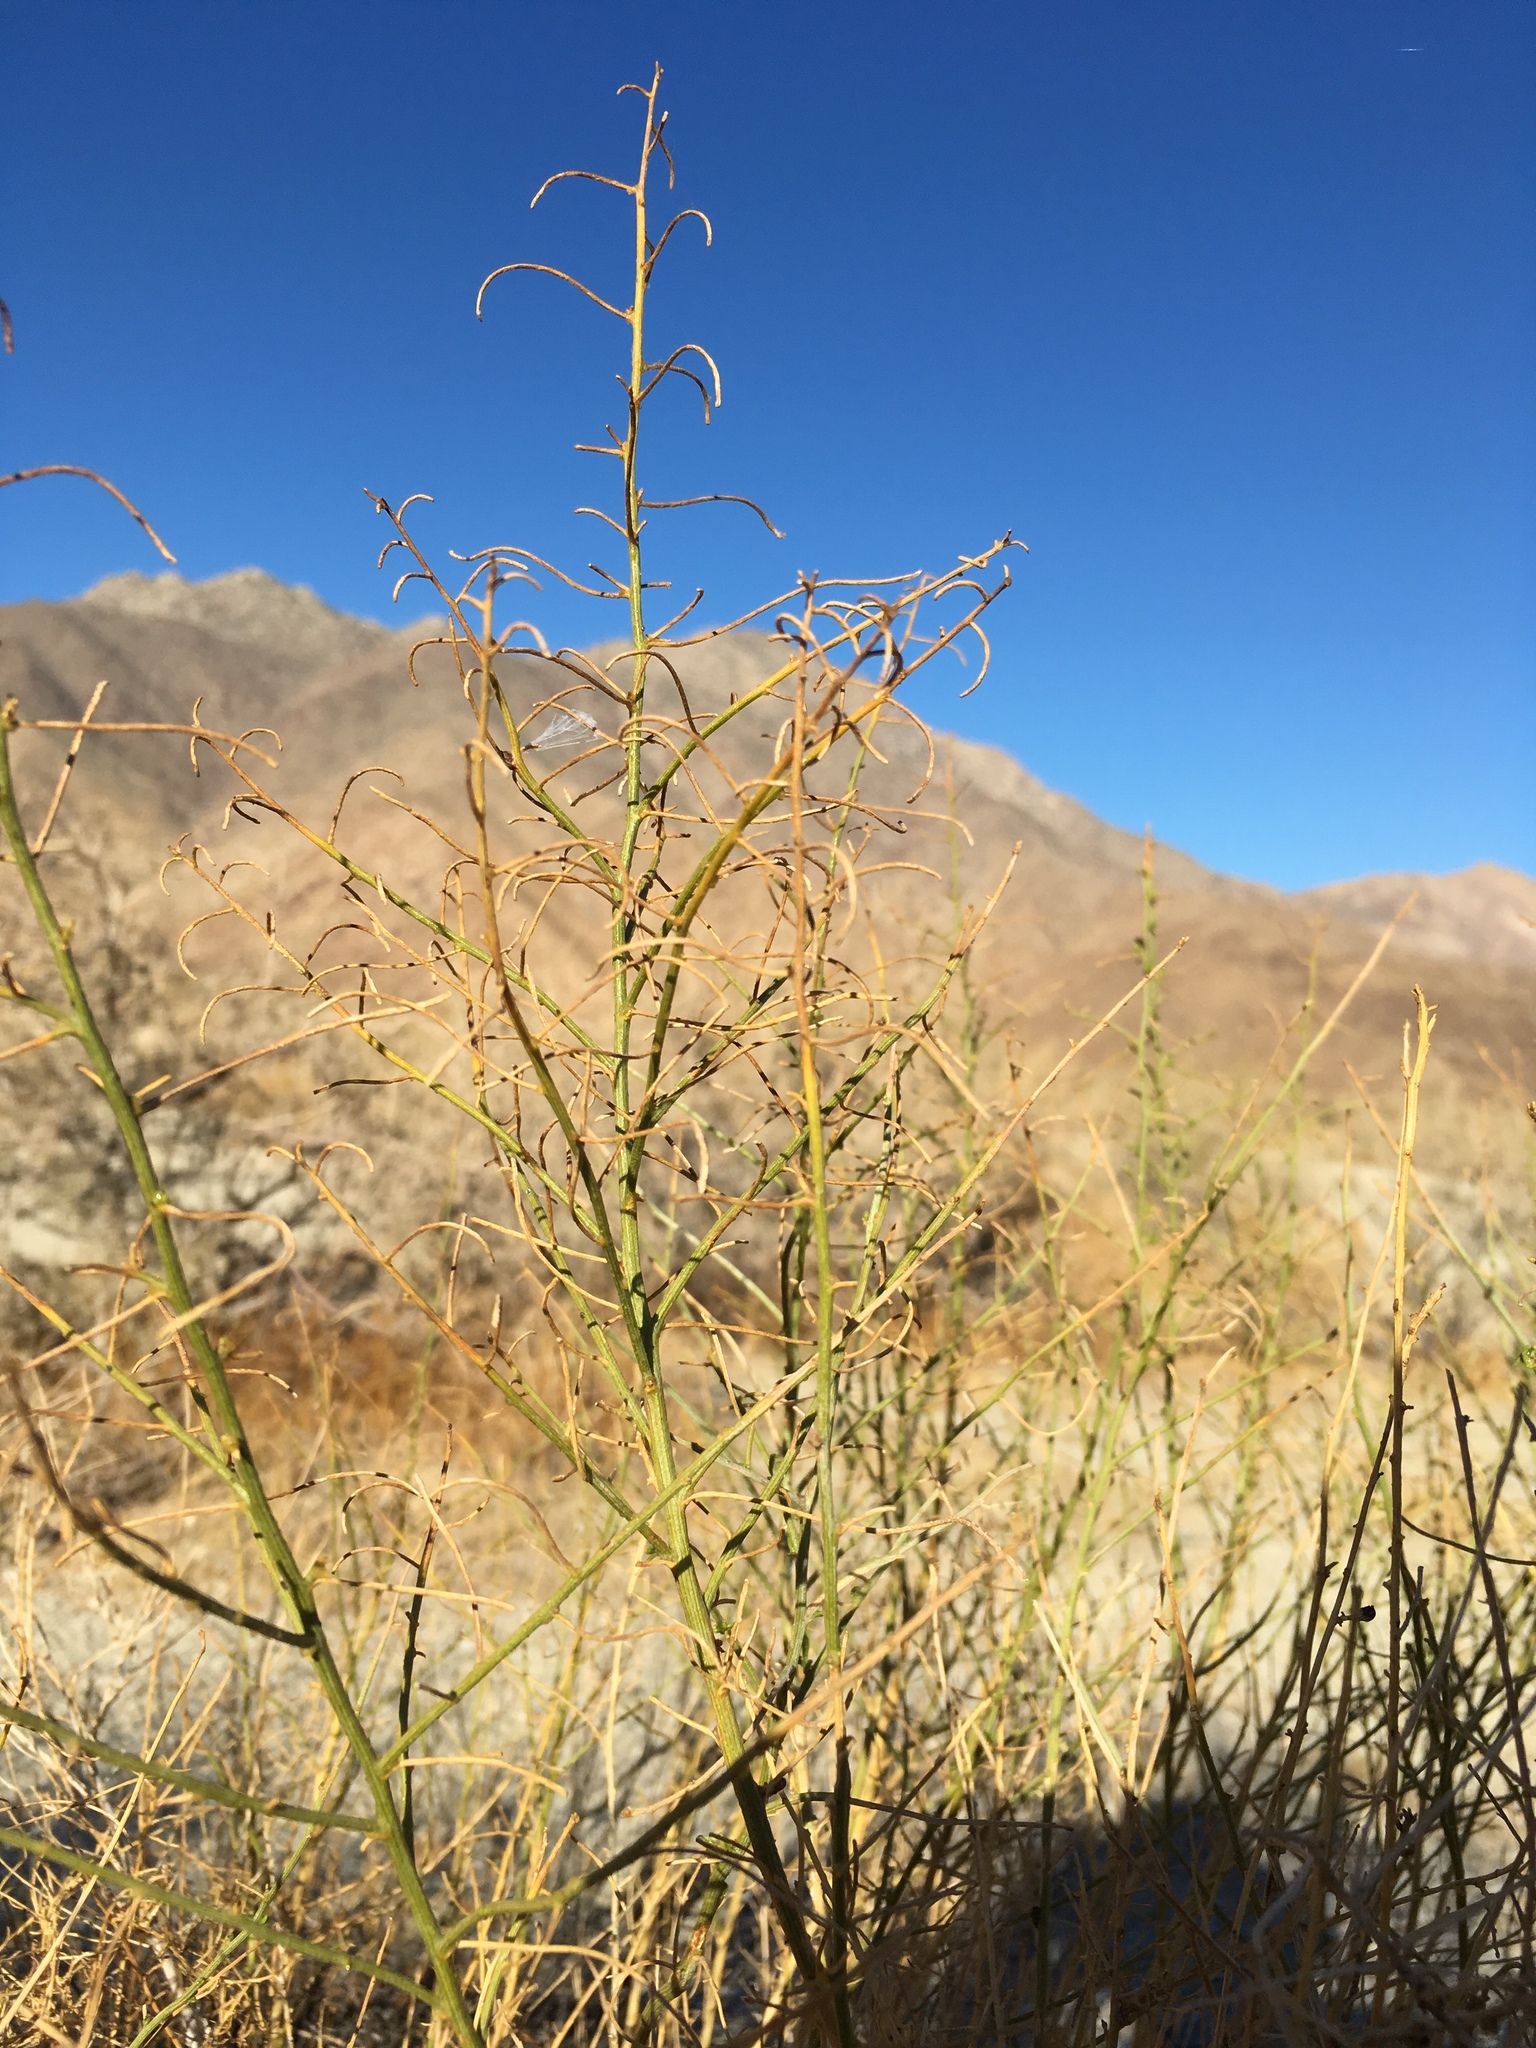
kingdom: Plantae
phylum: Tracheophyta
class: Magnoliopsida
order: Asterales
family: Asteraceae
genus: Ambrosia
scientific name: Ambrosia salsola
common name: Burrobrush
